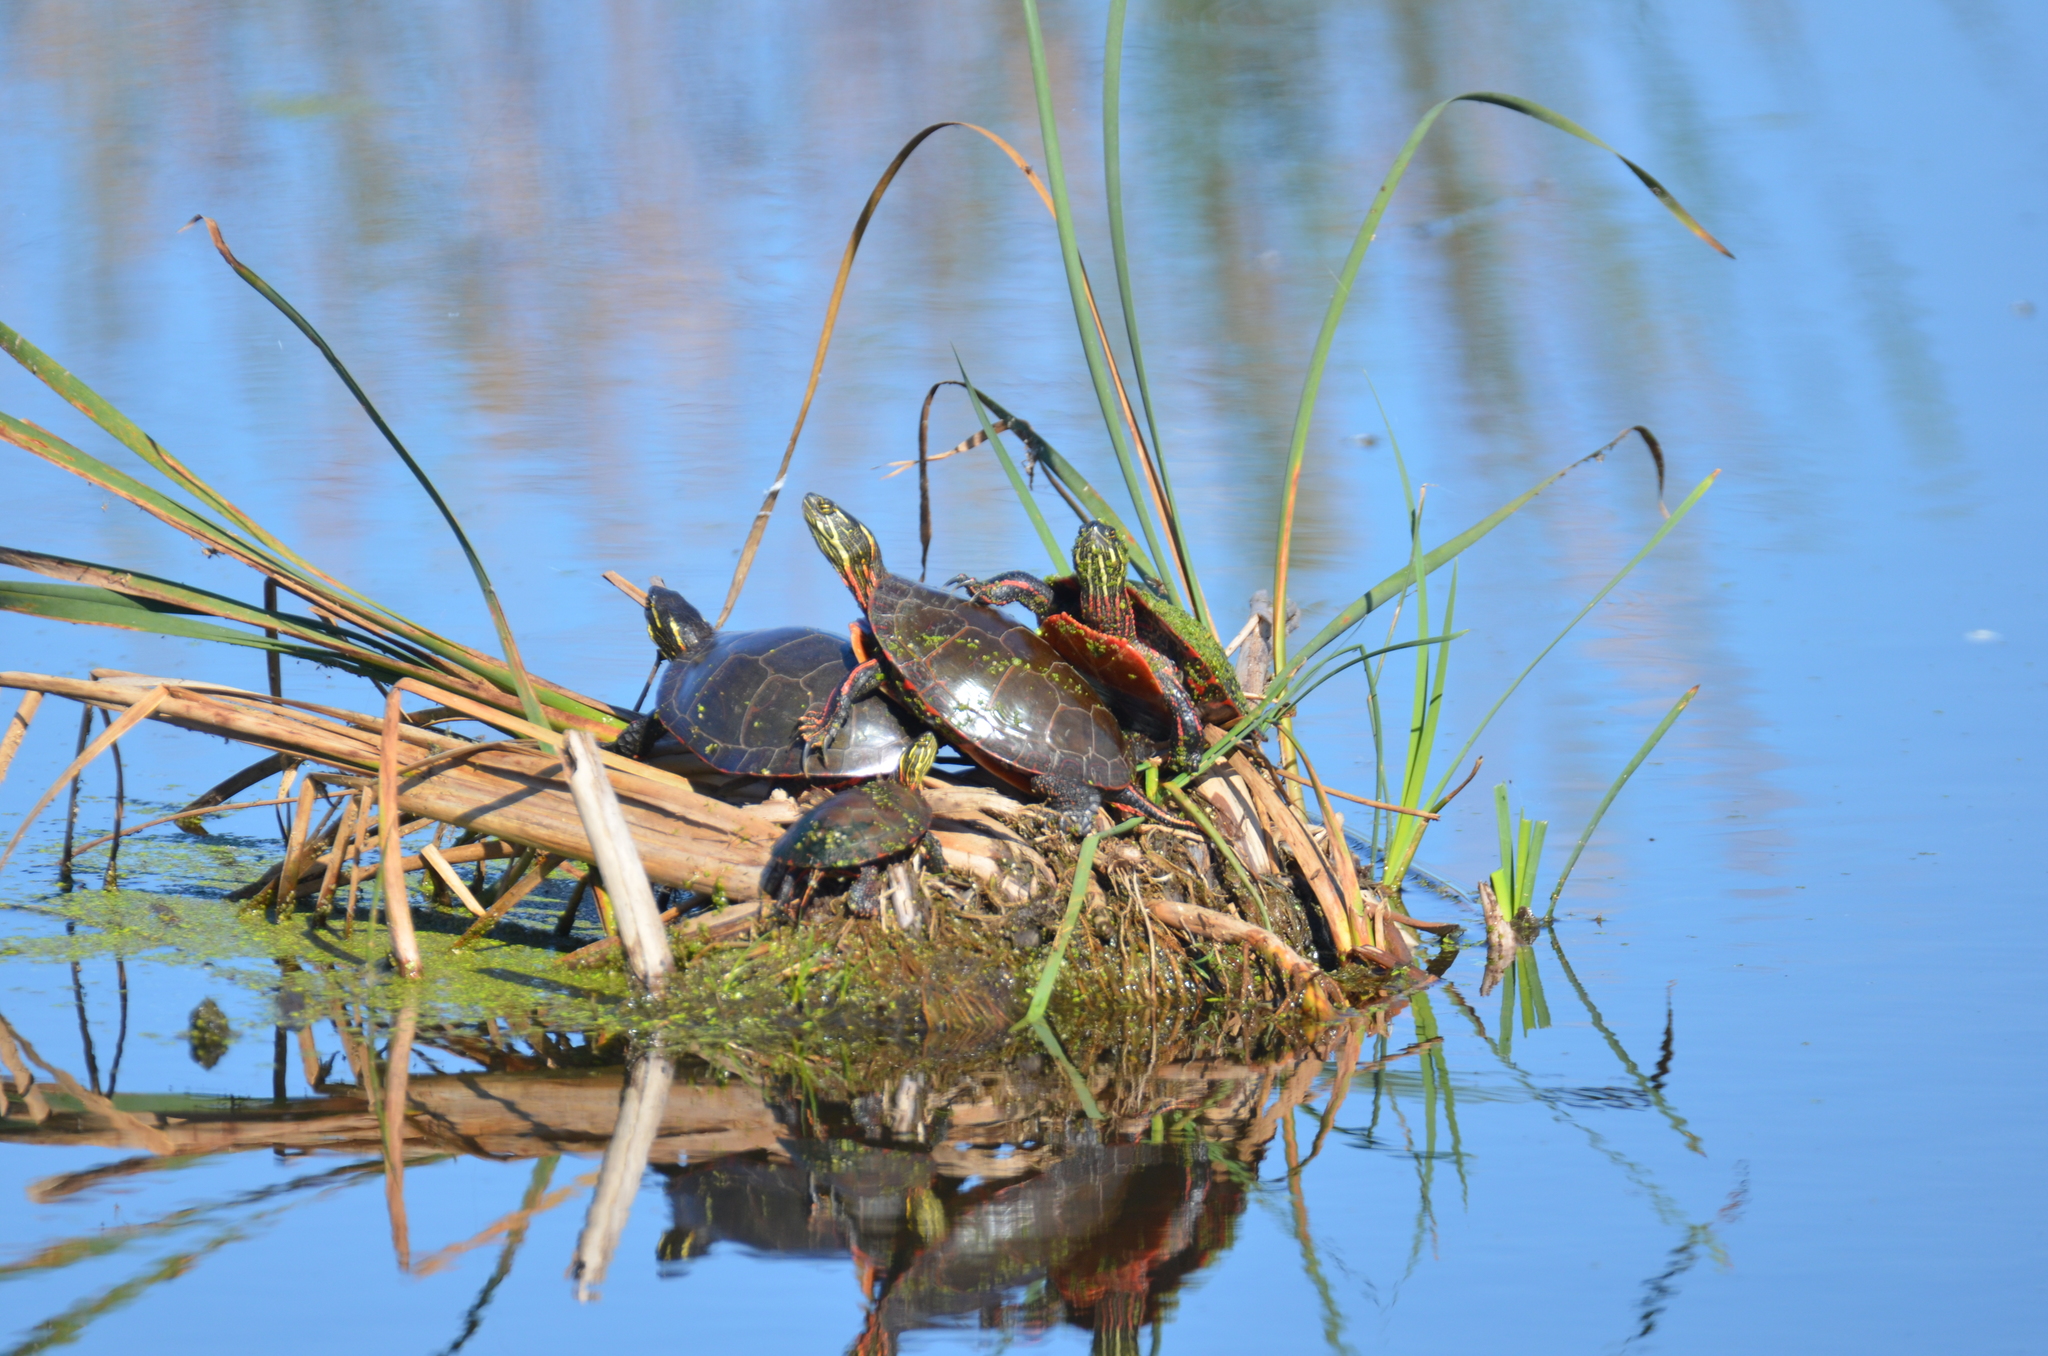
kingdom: Animalia
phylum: Chordata
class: Testudines
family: Emydidae
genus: Chrysemys
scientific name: Chrysemys picta
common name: Painted turtle
